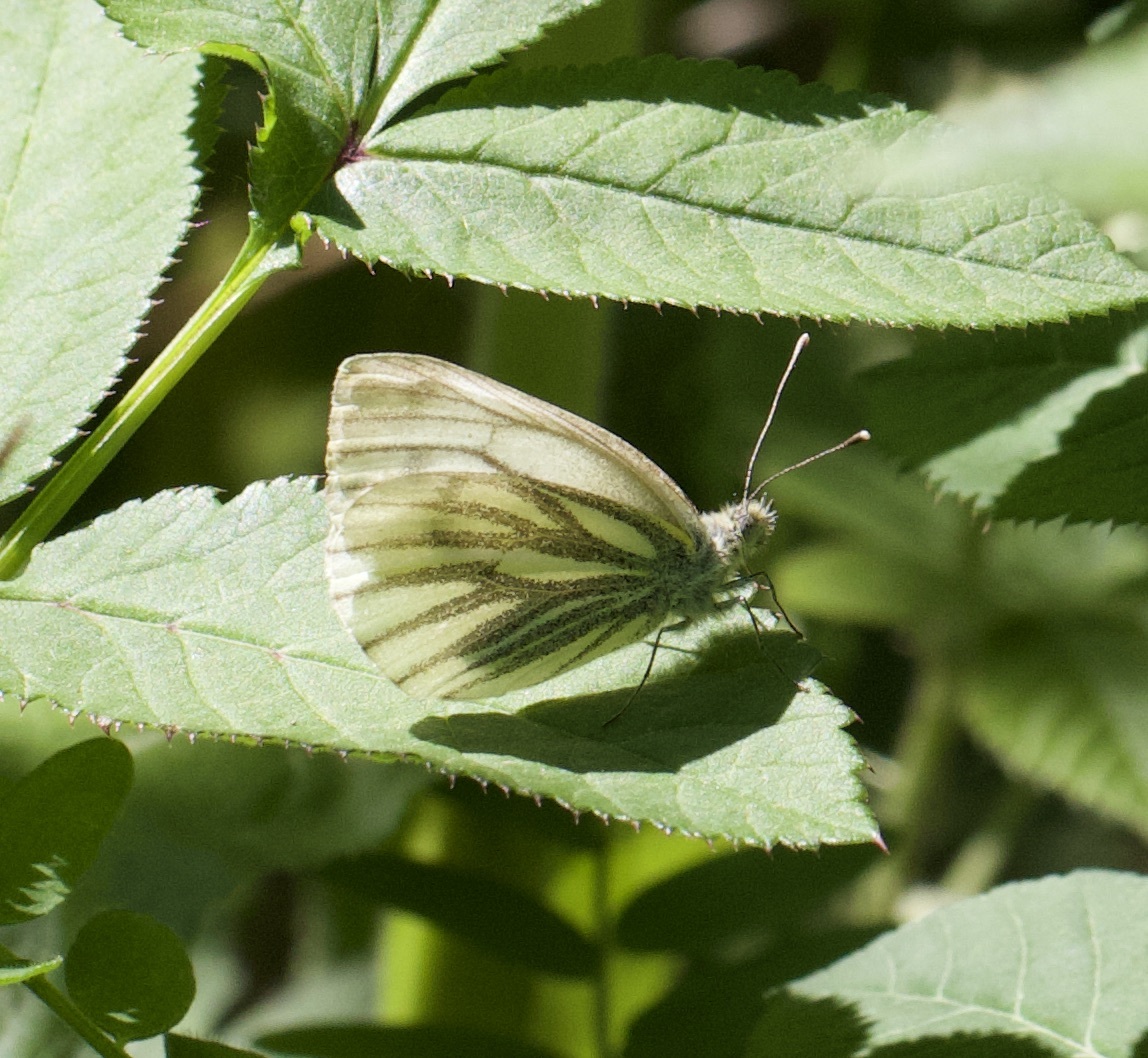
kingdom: Animalia
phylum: Arthropoda
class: Insecta
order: Lepidoptera
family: Pieridae
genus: Pieris
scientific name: Pieris napi
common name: Green-veined white
